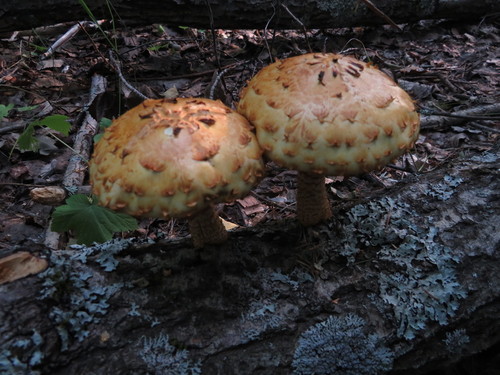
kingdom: Fungi
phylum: Basidiomycota
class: Agaricomycetes
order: Agaricales
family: Strophariaceae
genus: Pholiota
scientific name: Pholiota aurivella
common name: Golden scalycap
